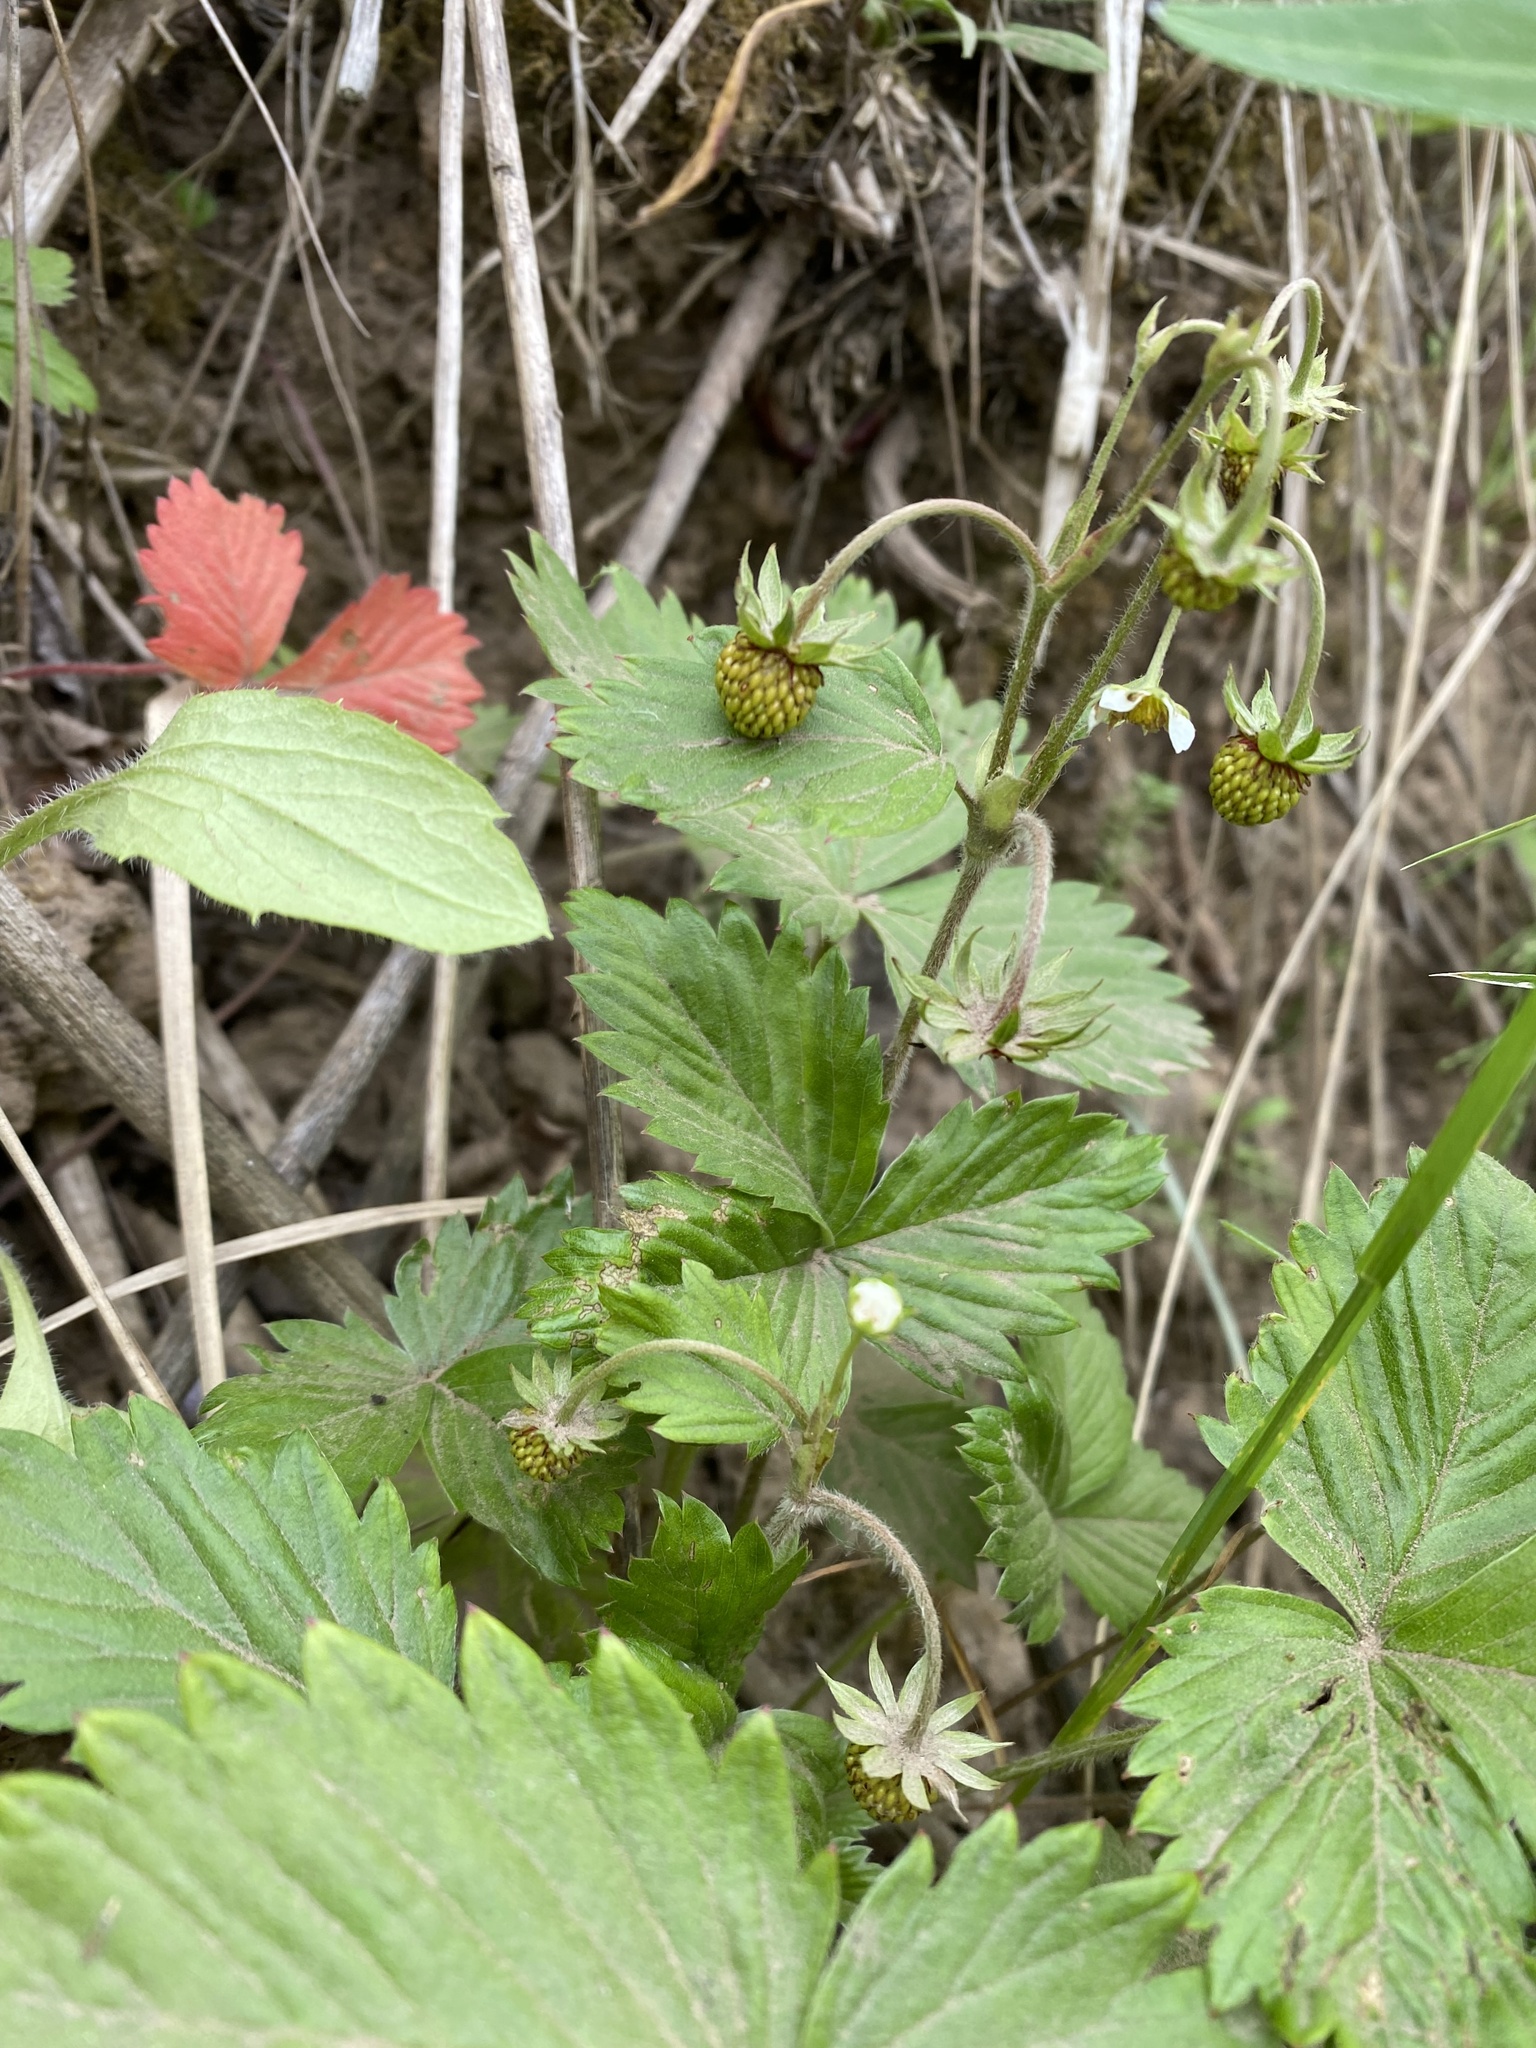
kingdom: Plantae
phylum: Tracheophyta
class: Magnoliopsida
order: Rosales
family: Rosaceae
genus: Fragaria
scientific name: Fragaria vesca
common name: Wild strawberry
